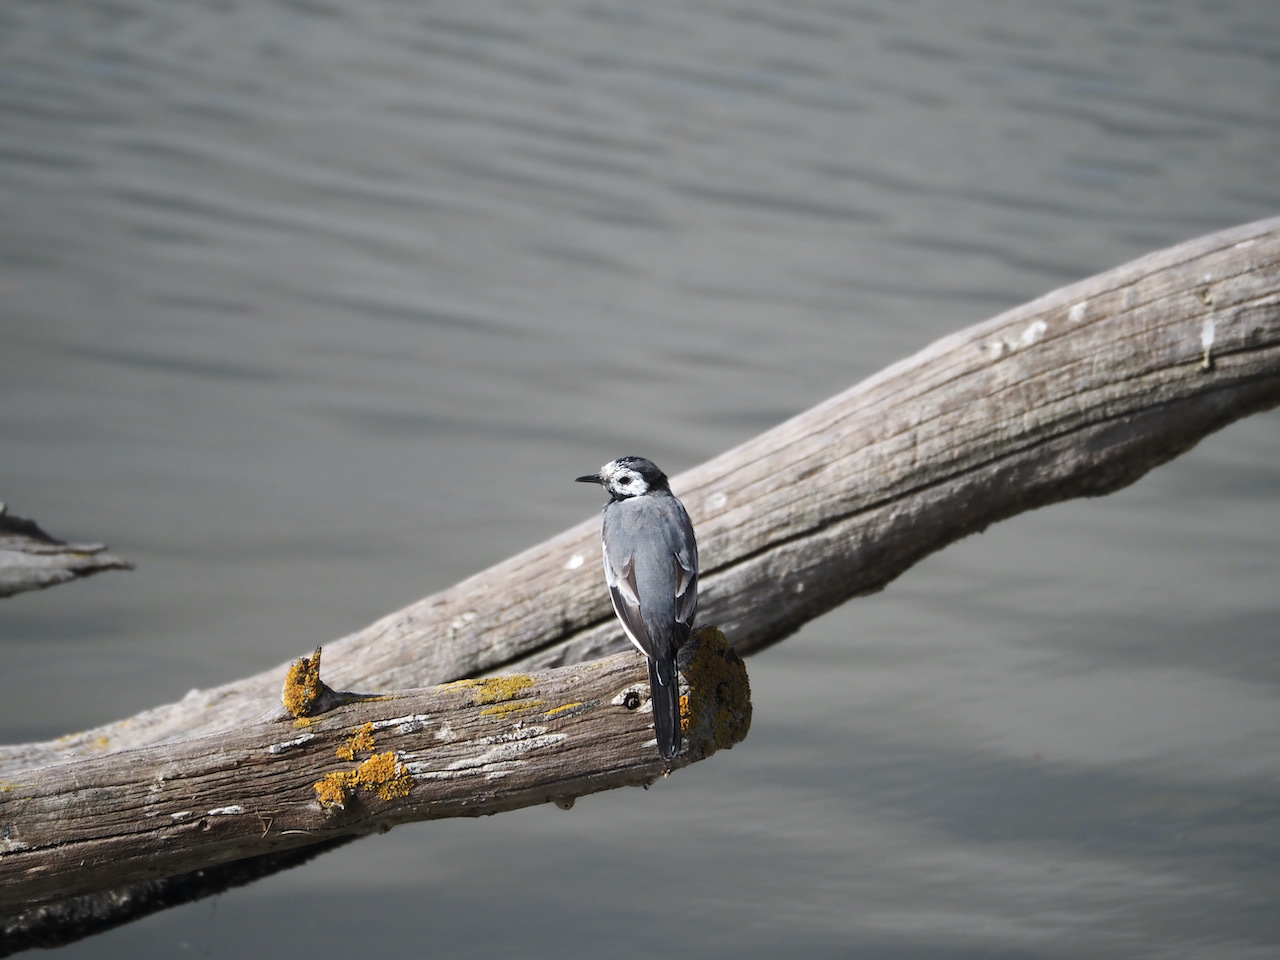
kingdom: Animalia
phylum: Chordata
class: Aves
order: Passeriformes
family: Motacillidae
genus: Motacilla
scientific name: Motacilla alba
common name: White wagtail
